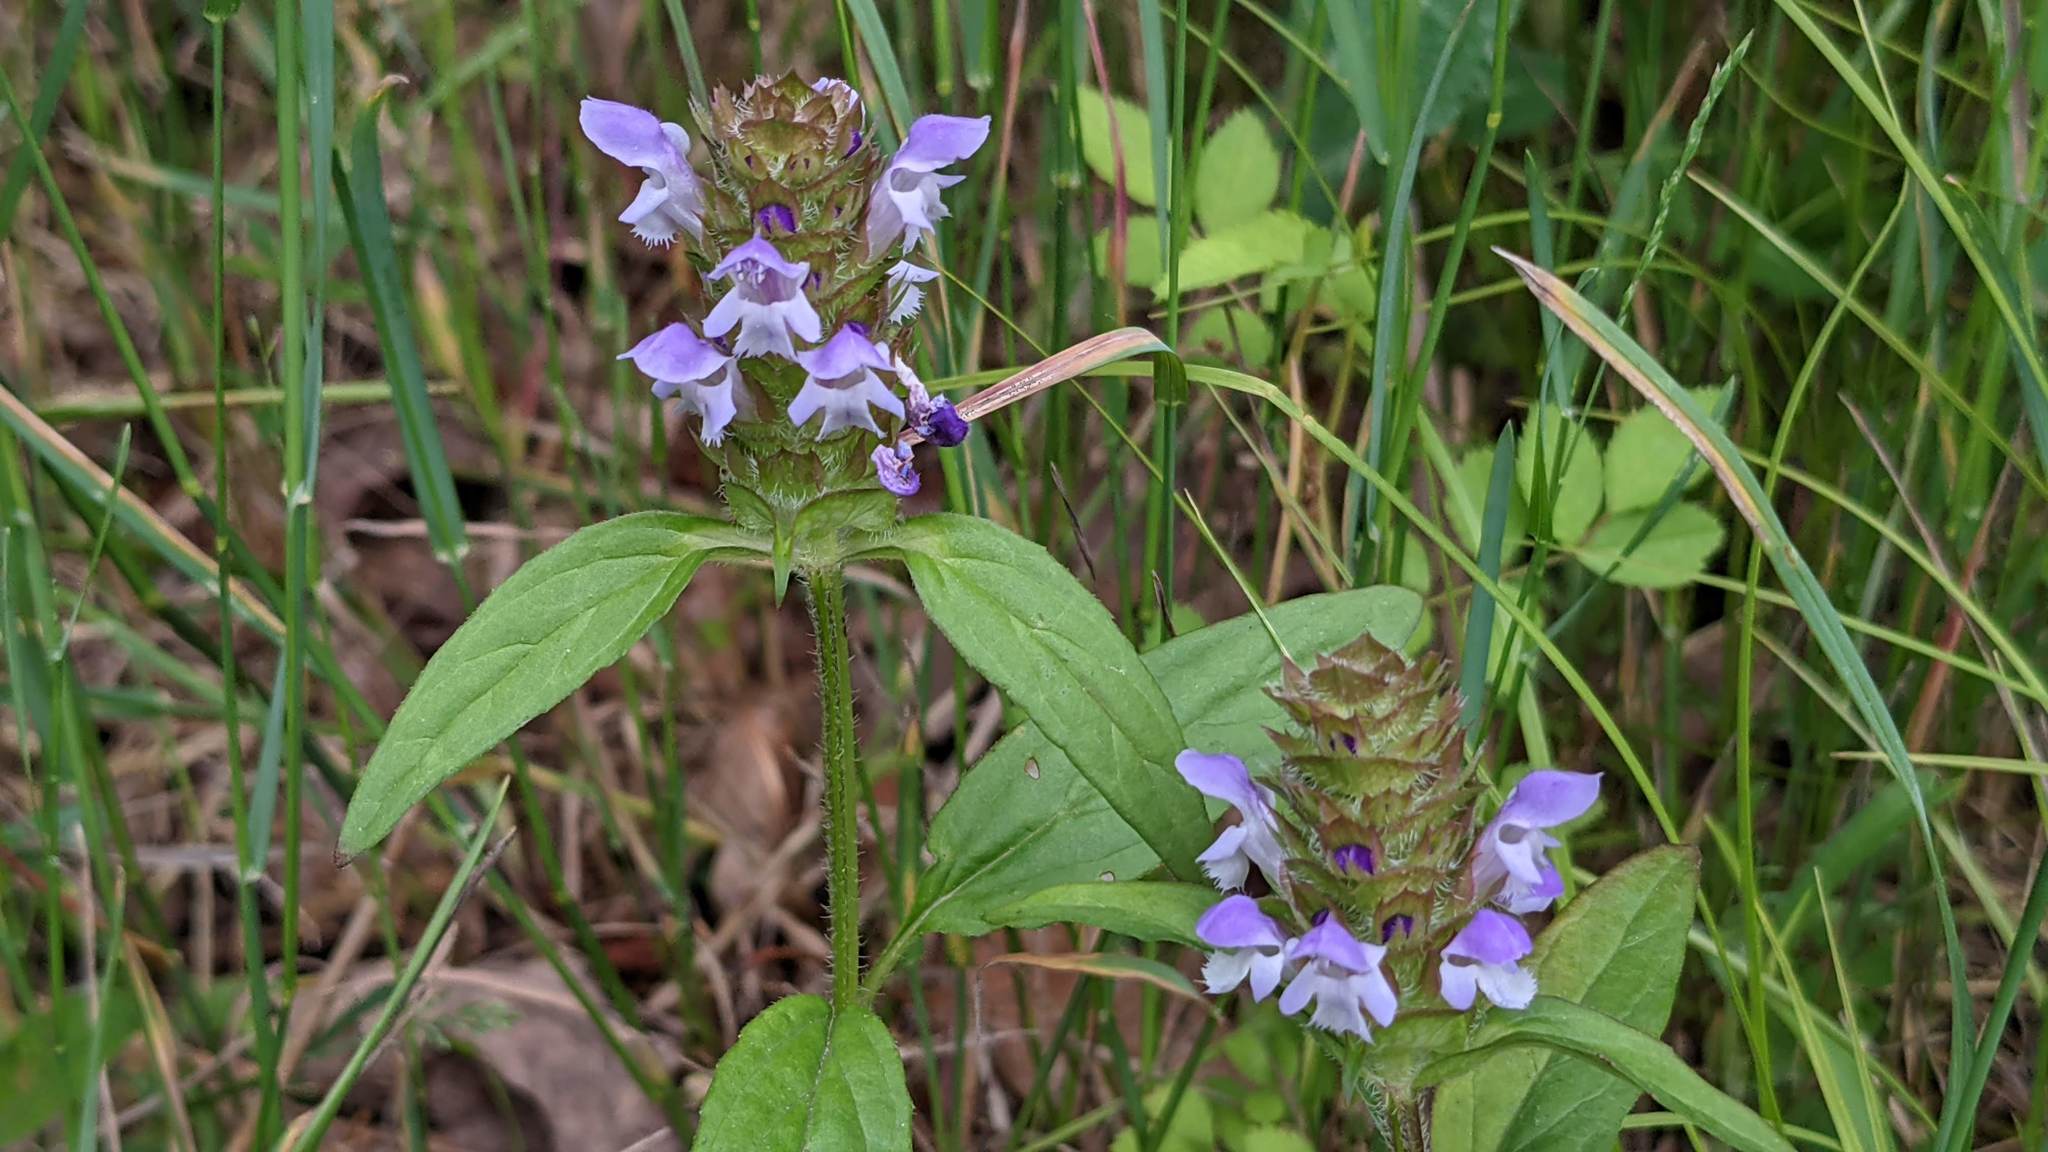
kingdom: Plantae
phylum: Tracheophyta
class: Magnoliopsida
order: Lamiales
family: Lamiaceae
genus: Prunella
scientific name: Prunella vulgaris
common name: Heal-all
